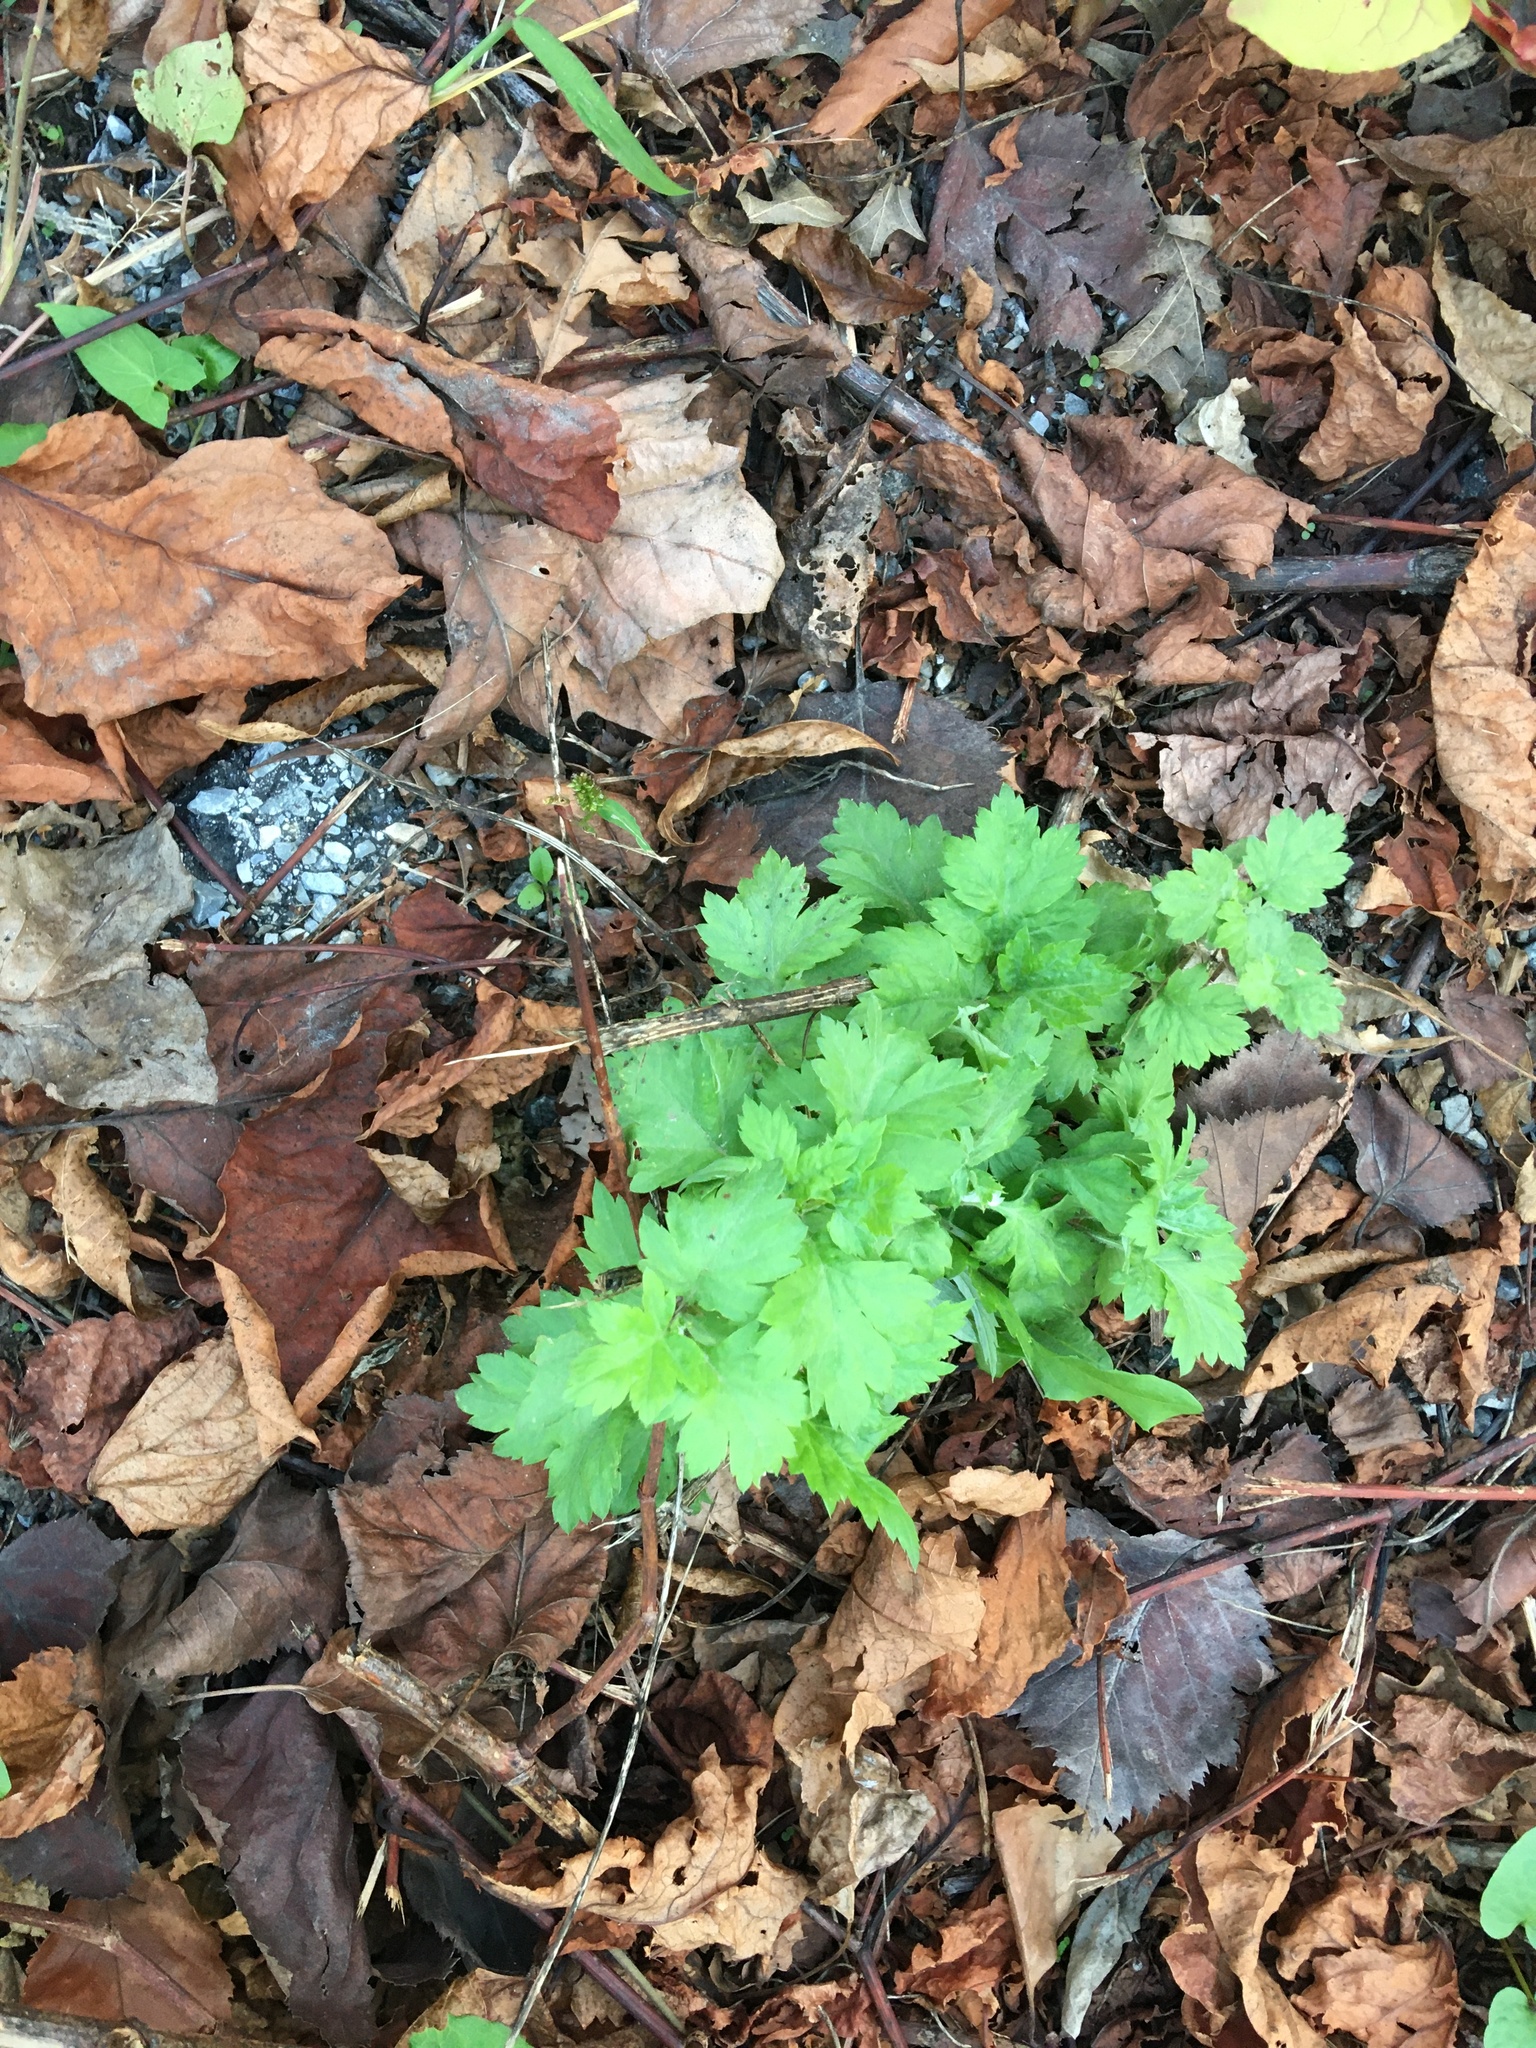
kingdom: Plantae
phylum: Tracheophyta
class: Magnoliopsida
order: Asterales
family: Asteraceae
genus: Artemisia
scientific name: Artemisia vulgaris
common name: Mugwort
